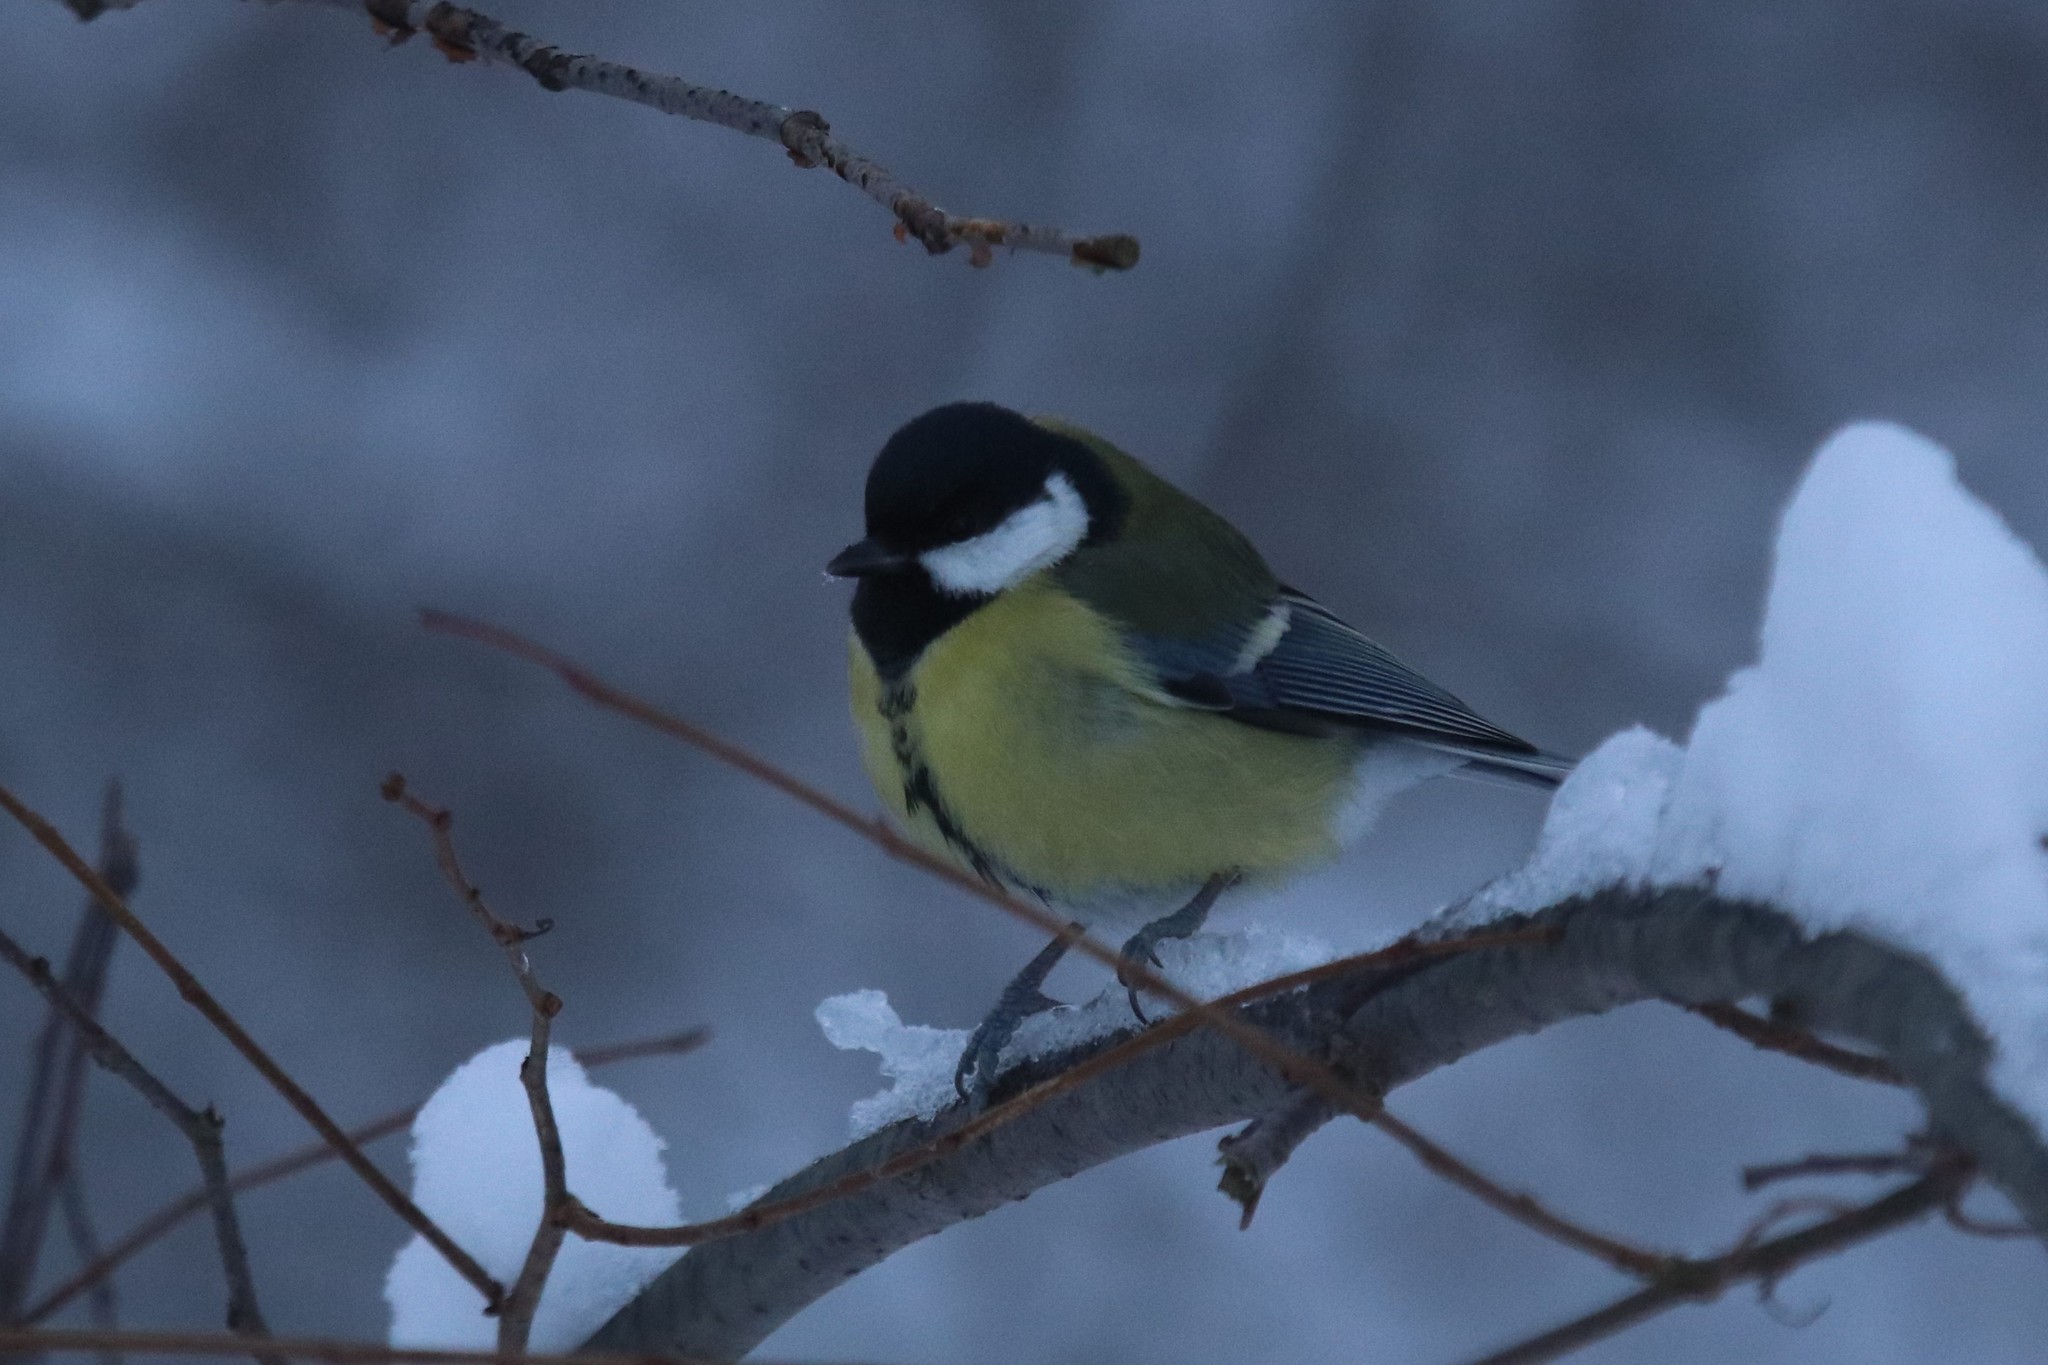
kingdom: Animalia
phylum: Chordata
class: Aves
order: Passeriformes
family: Paridae
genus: Parus
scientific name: Parus major
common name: Great tit
